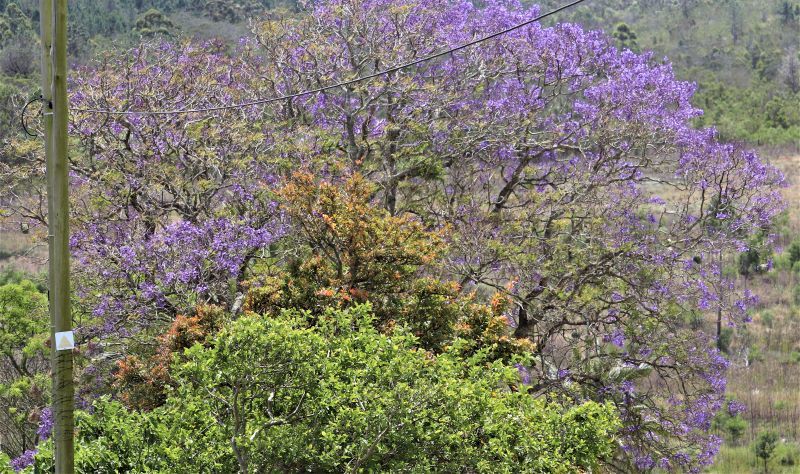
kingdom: Plantae
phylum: Tracheophyta
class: Magnoliopsida
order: Lamiales
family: Bignoniaceae
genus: Jacaranda
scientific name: Jacaranda mimosifolia
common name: Black poui
